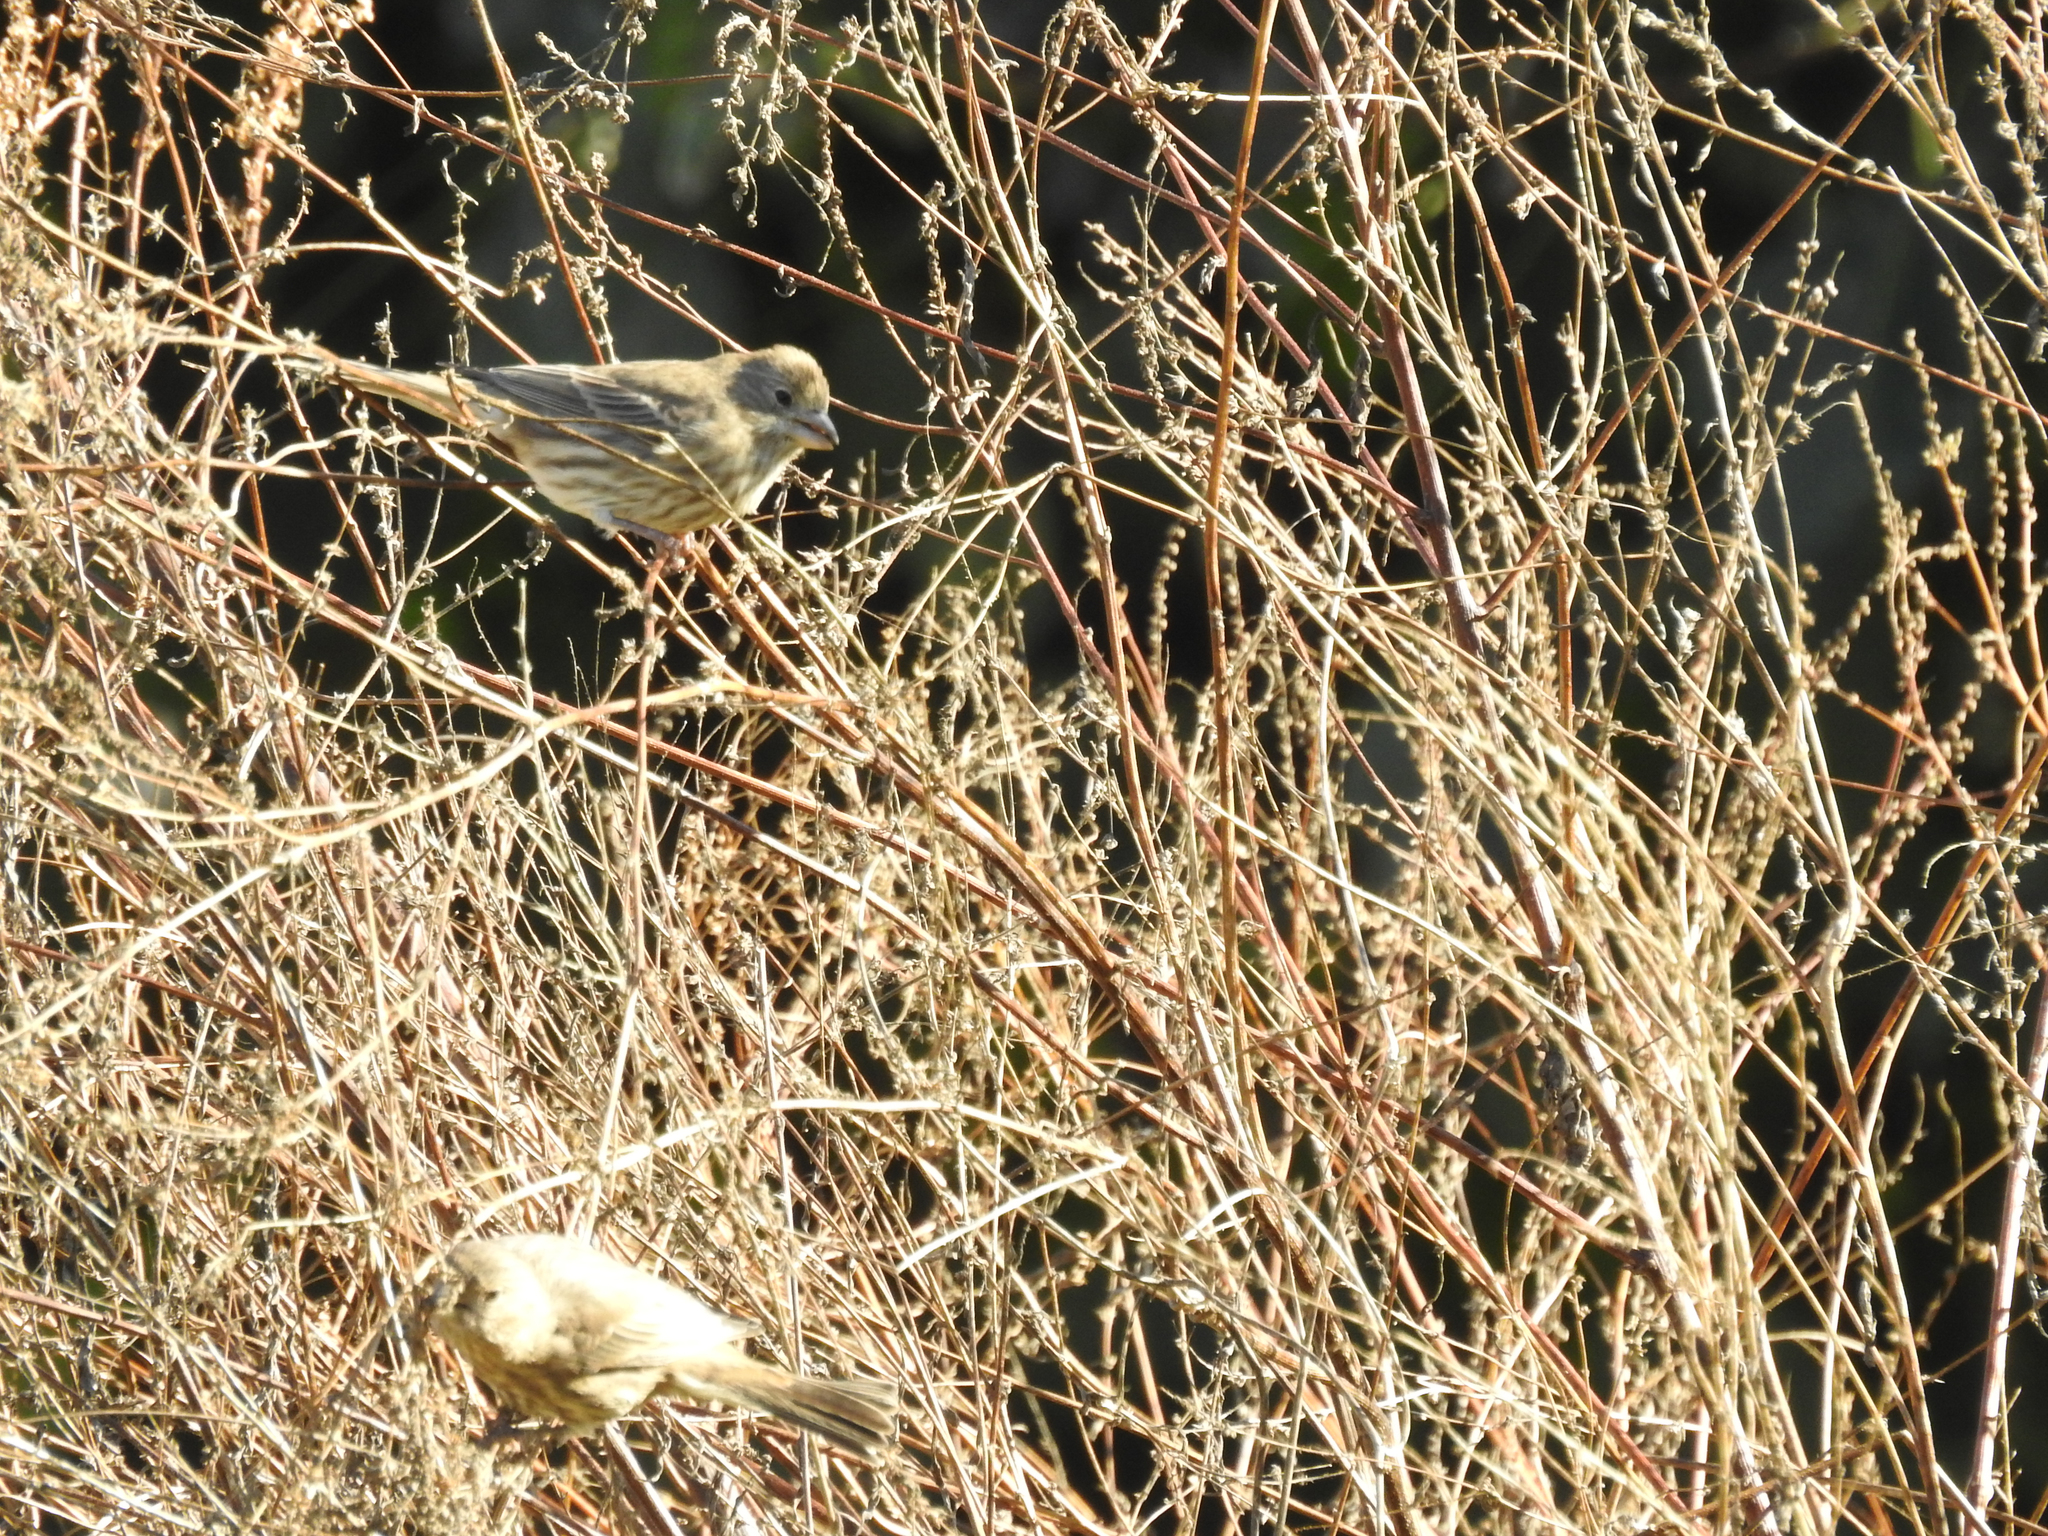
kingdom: Animalia
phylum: Chordata
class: Aves
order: Passeriformes
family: Fringillidae
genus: Haemorhous
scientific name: Haemorhous mexicanus
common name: House finch
